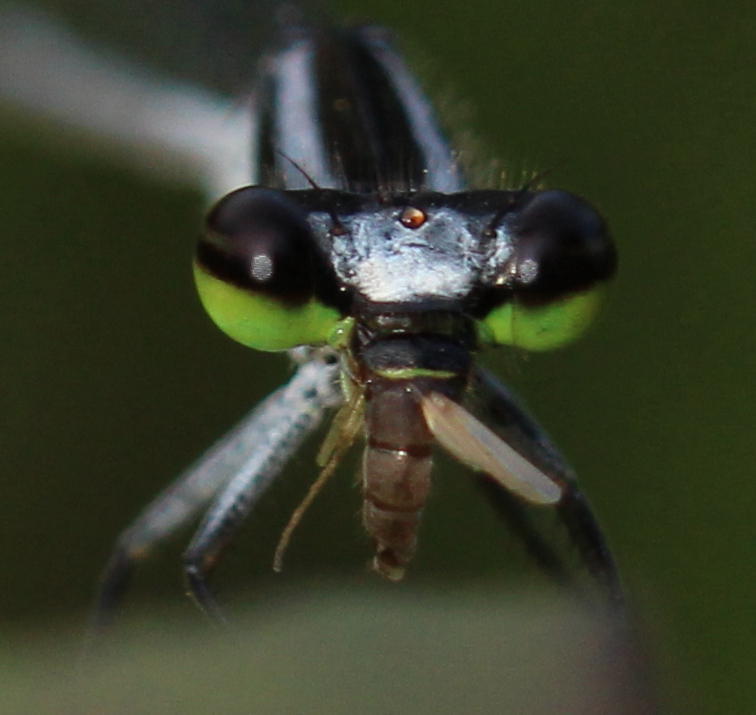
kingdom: Animalia
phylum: Arthropoda
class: Insecta
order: Odonata
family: Coenagrionidae
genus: Pseudagrion
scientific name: Pseudagrion kersteni
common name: Powder-faced sprite
